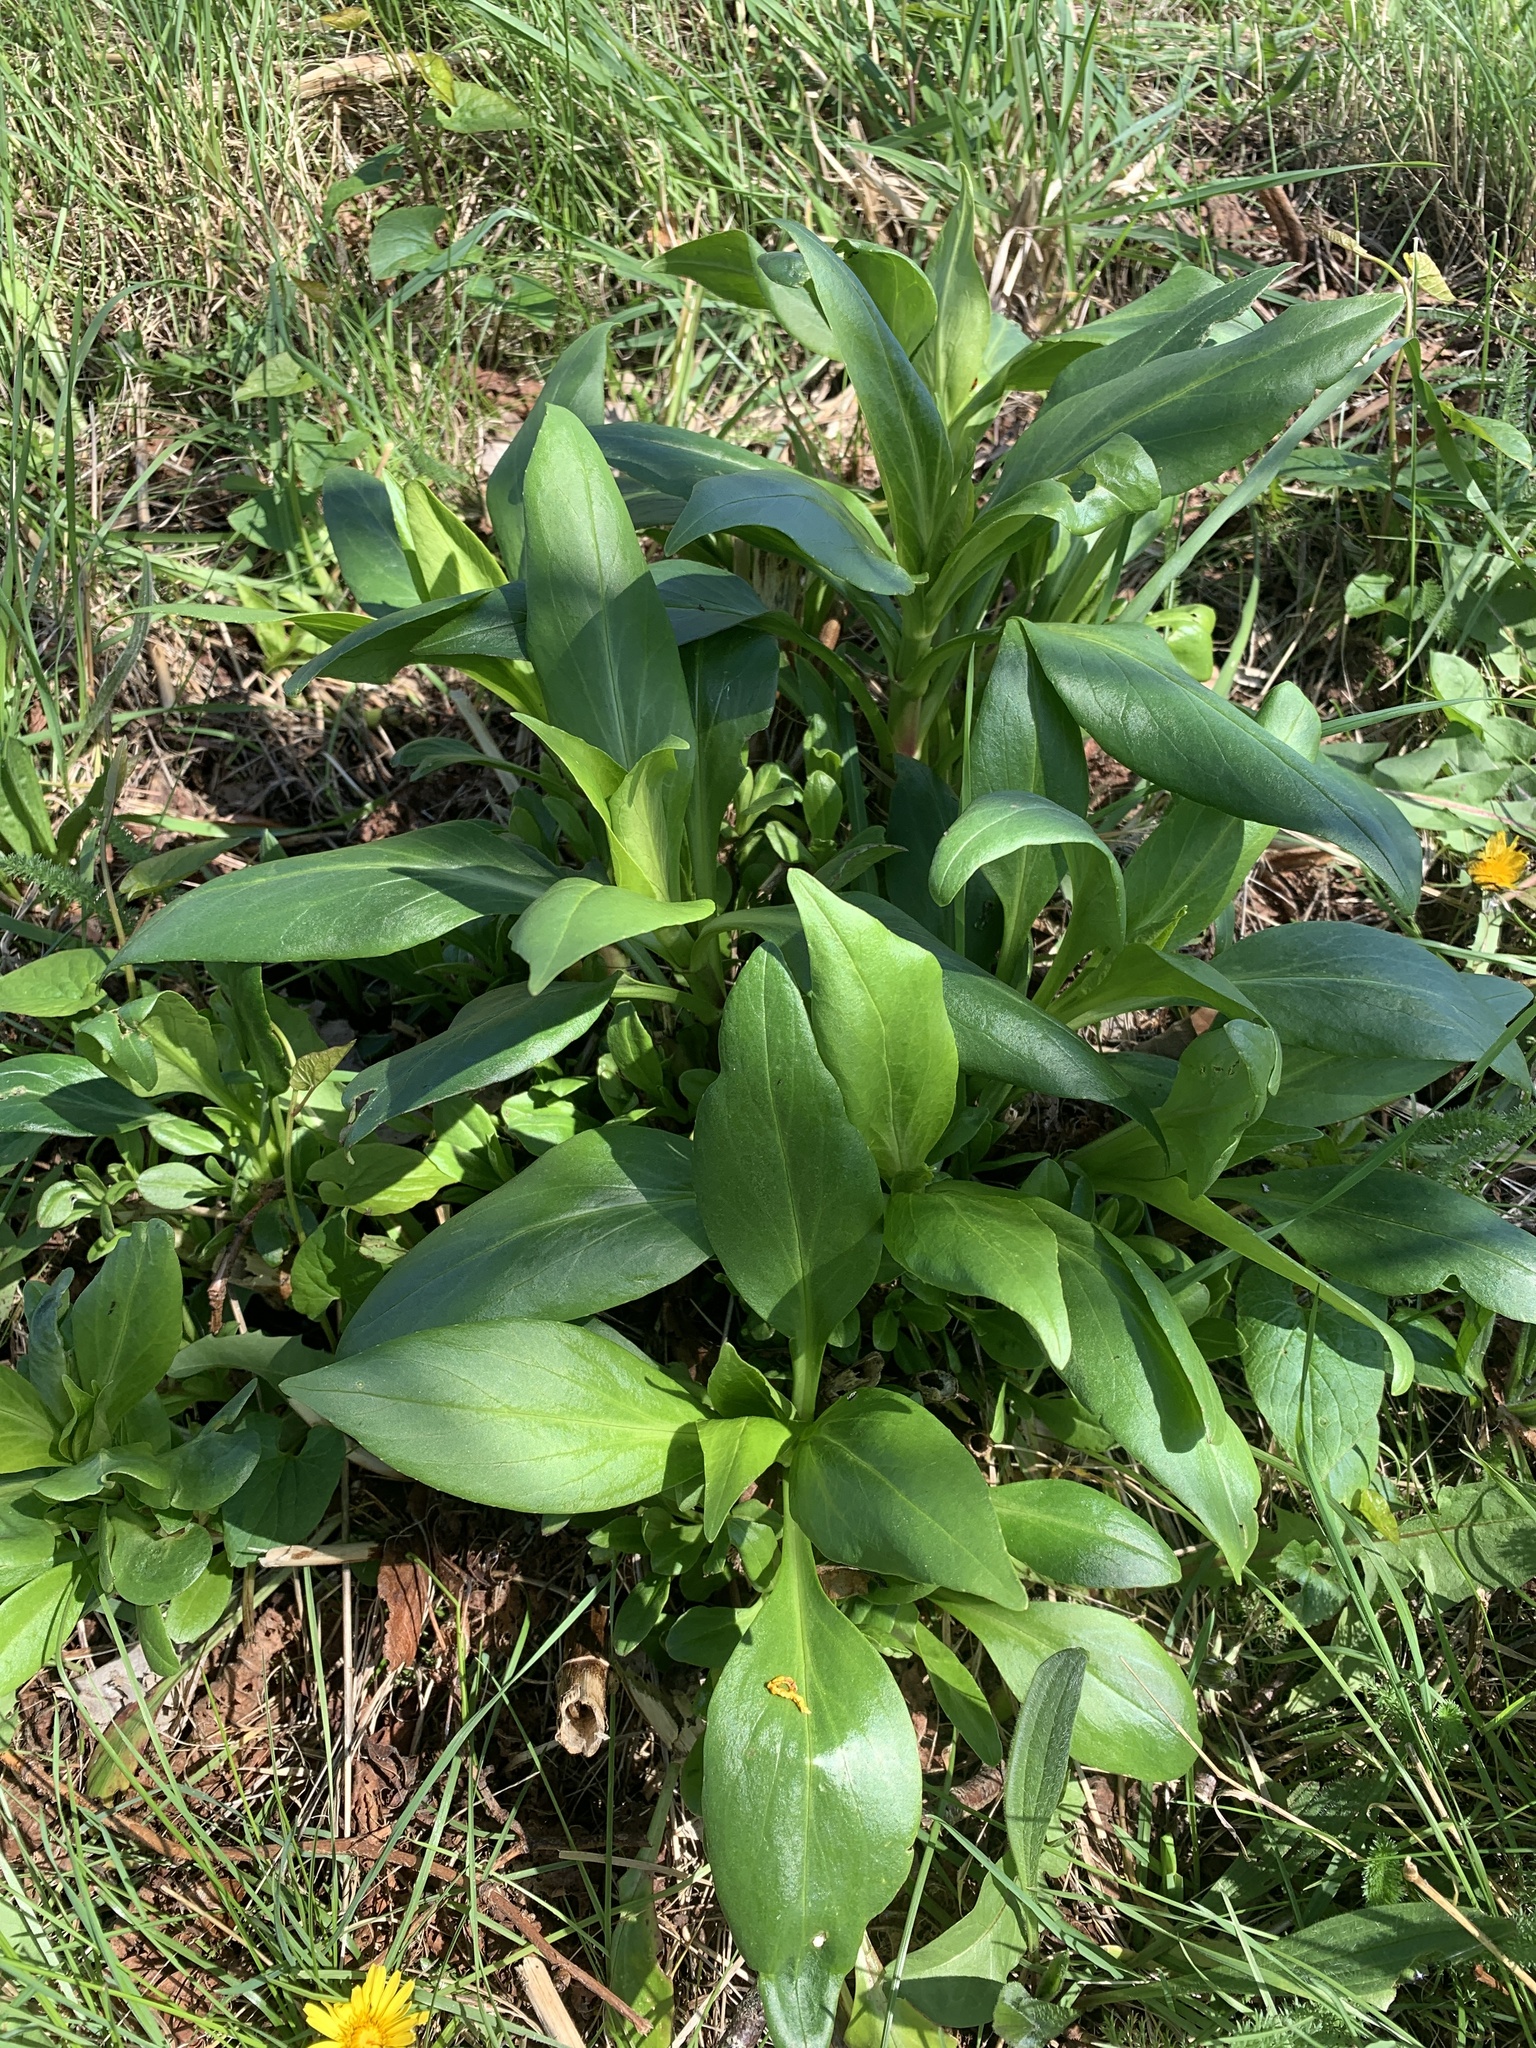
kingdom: Plantae
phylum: Tracheophyta
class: Magnoliopsida
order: Dipsacales
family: Caprifoliaceae
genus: Centranthus
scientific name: Centranthus ruber
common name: Red valerian
